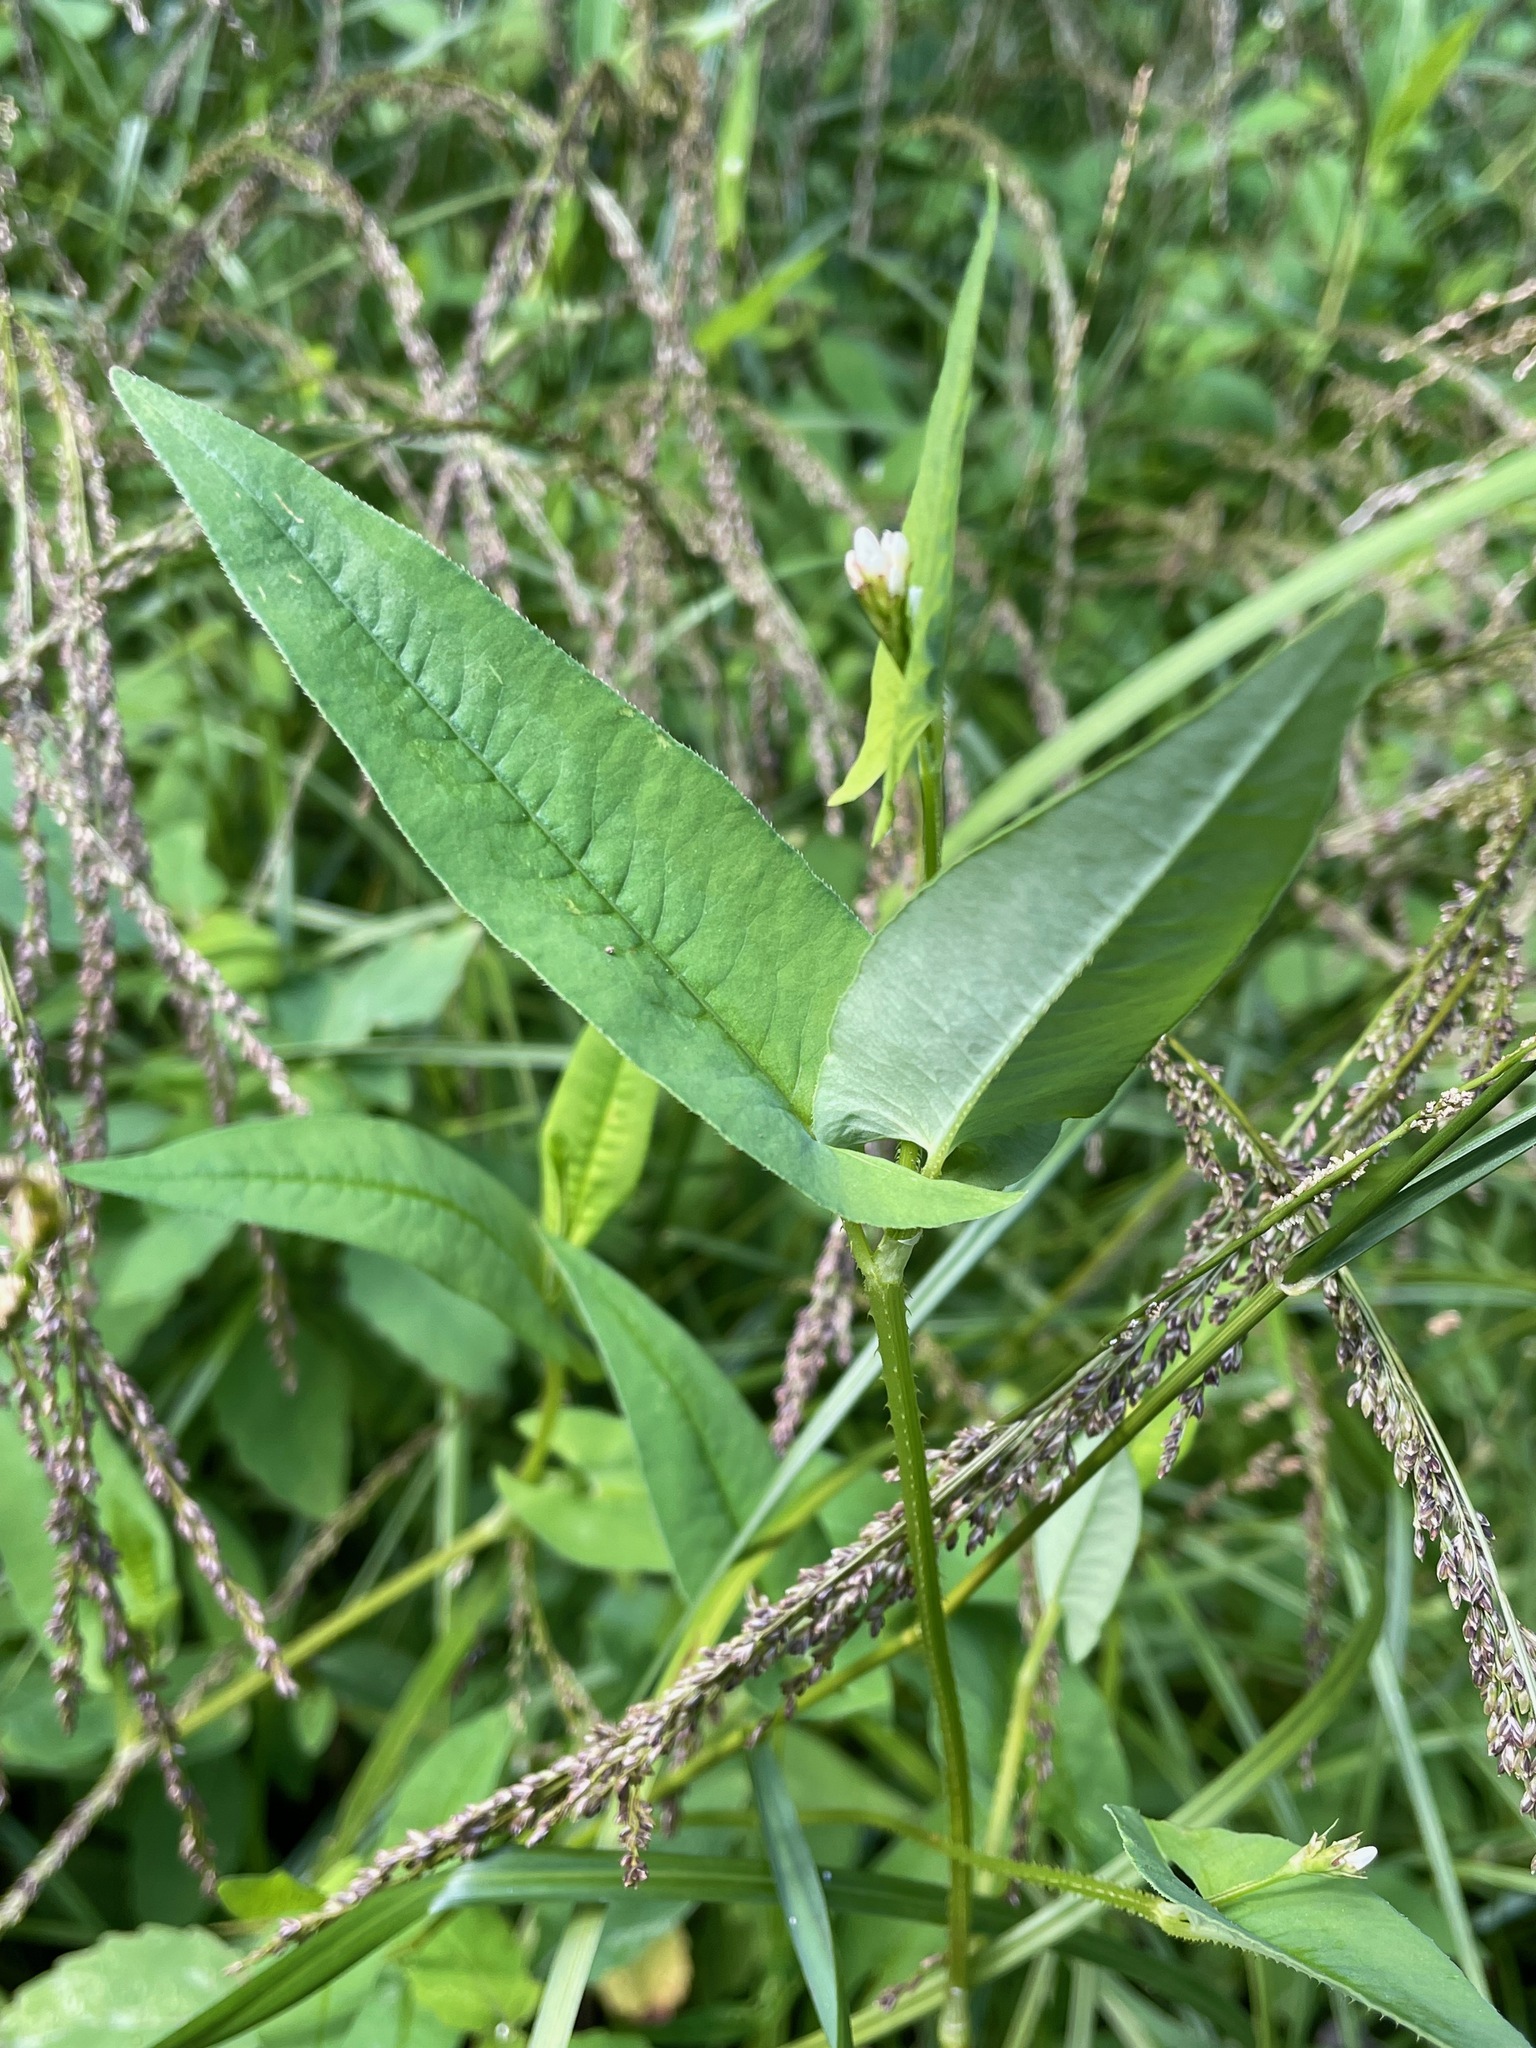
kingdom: Plantae
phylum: Tracheophyta
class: Magnoliopsida
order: Caryophyllales
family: Polygonaceae
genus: Persicaria
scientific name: Persicaria sagittata
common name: American tearthumb
